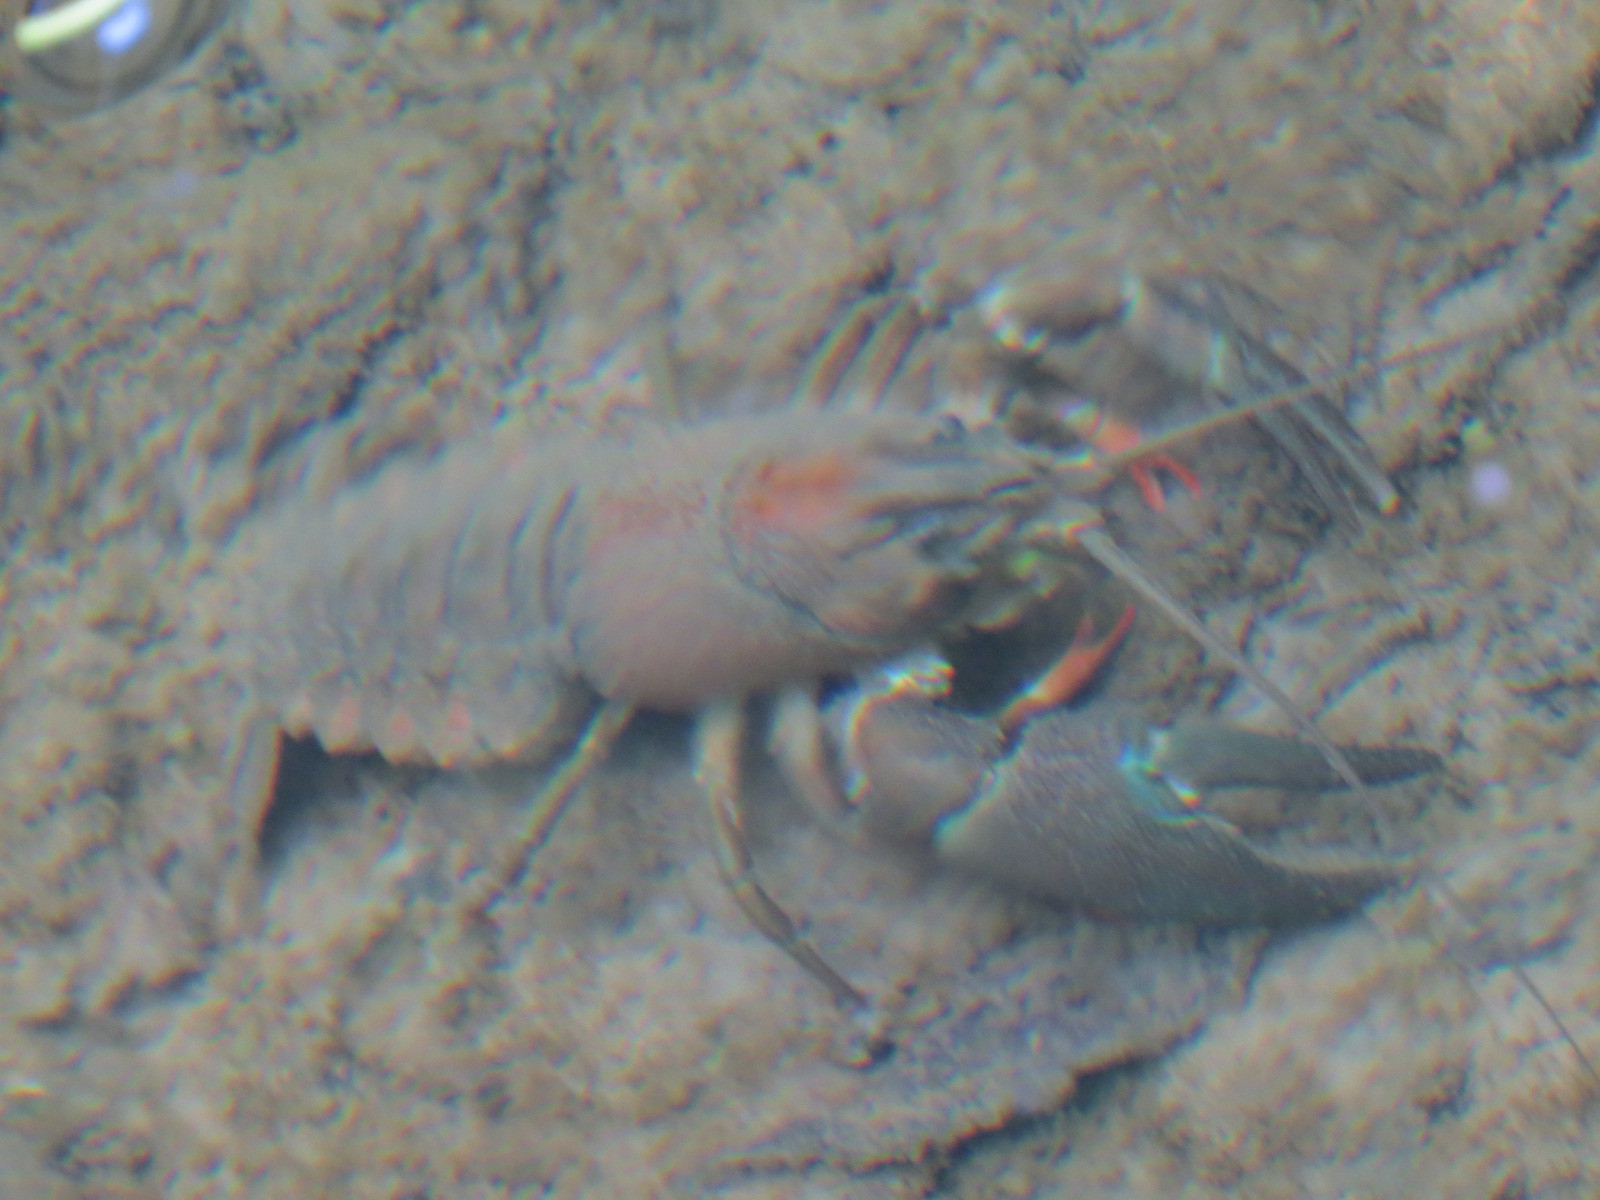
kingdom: Animalia
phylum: Arthropoda
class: Malacostraca
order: Decapoda
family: Astacidae
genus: Pacifastacus
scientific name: Pacifastacus leniusculus
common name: Signal crayfish
